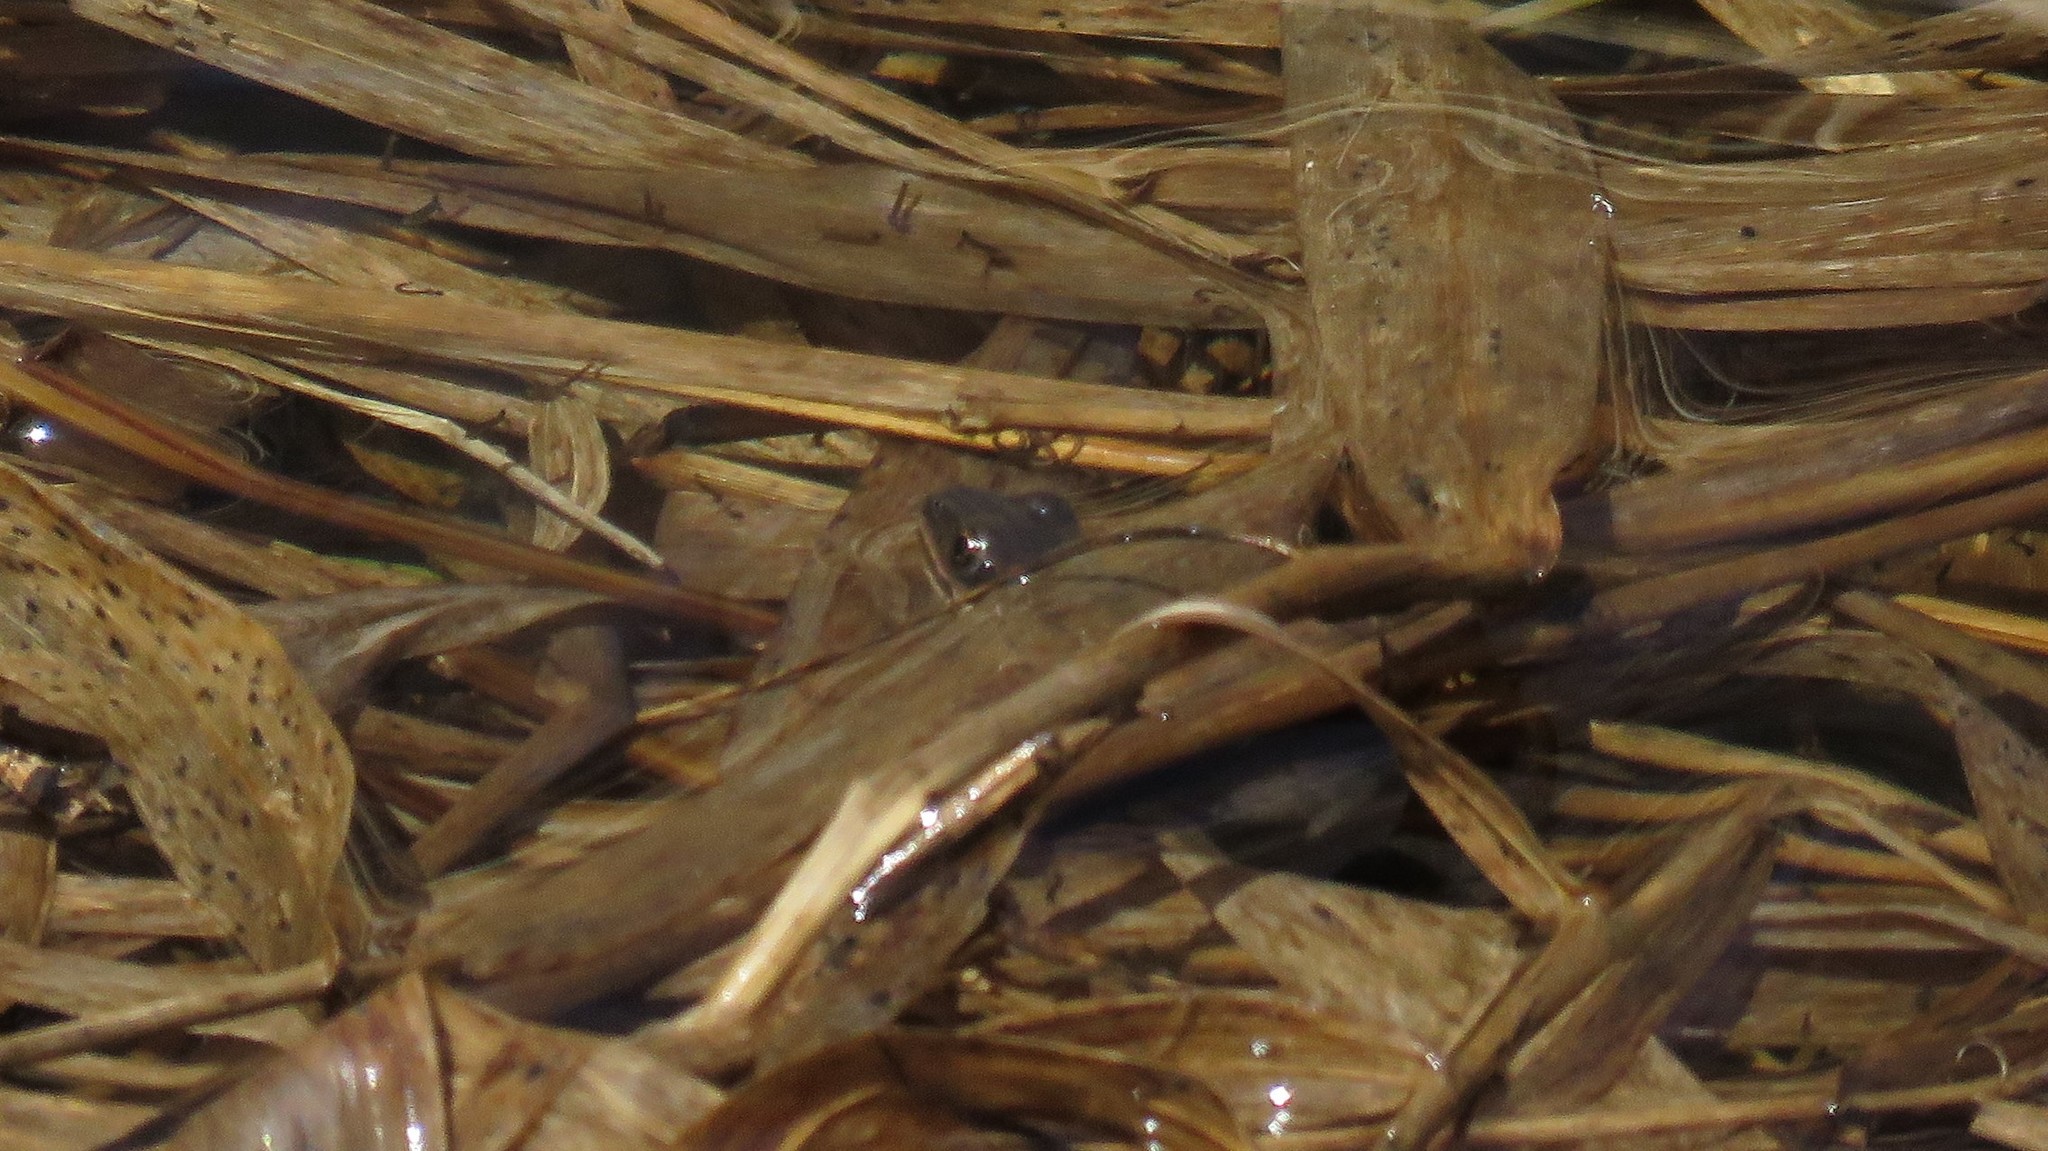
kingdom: Animalia
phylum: Chordata
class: Amphibia
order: Anura
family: Hylidae
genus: Pseudacris
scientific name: Pseudacris maculata
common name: Boreal chorus frog
